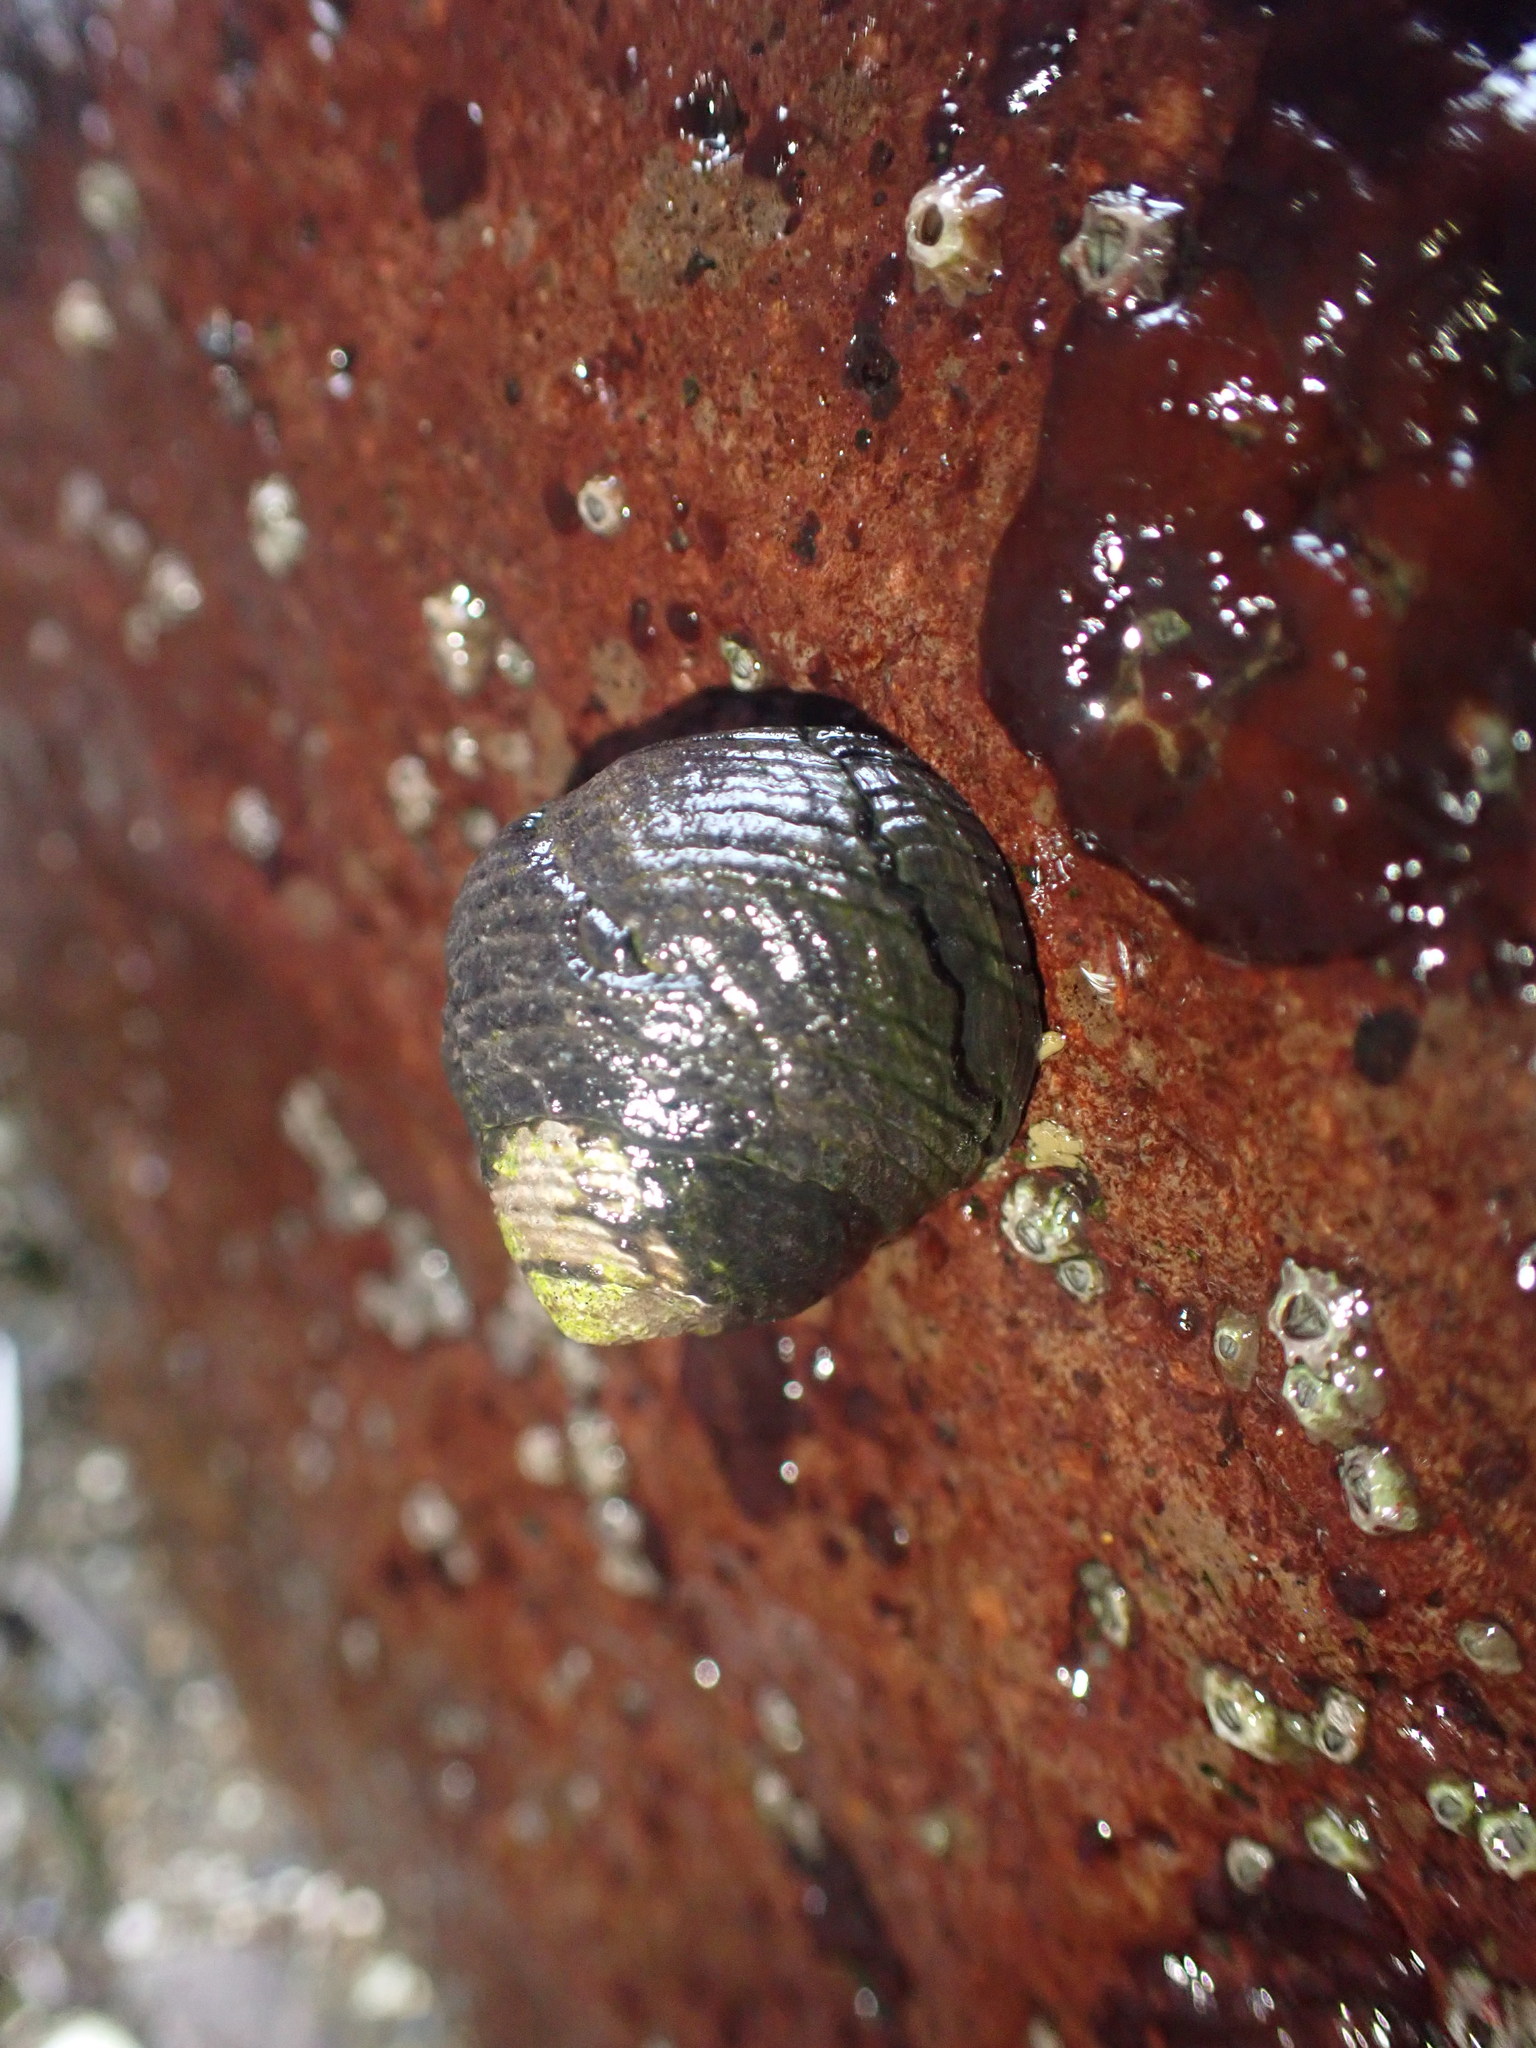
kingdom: Animalia
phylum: Mollusca
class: Gastropoda
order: Trochida
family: Trochidae
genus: Diloma
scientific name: Diloma zelandicum
